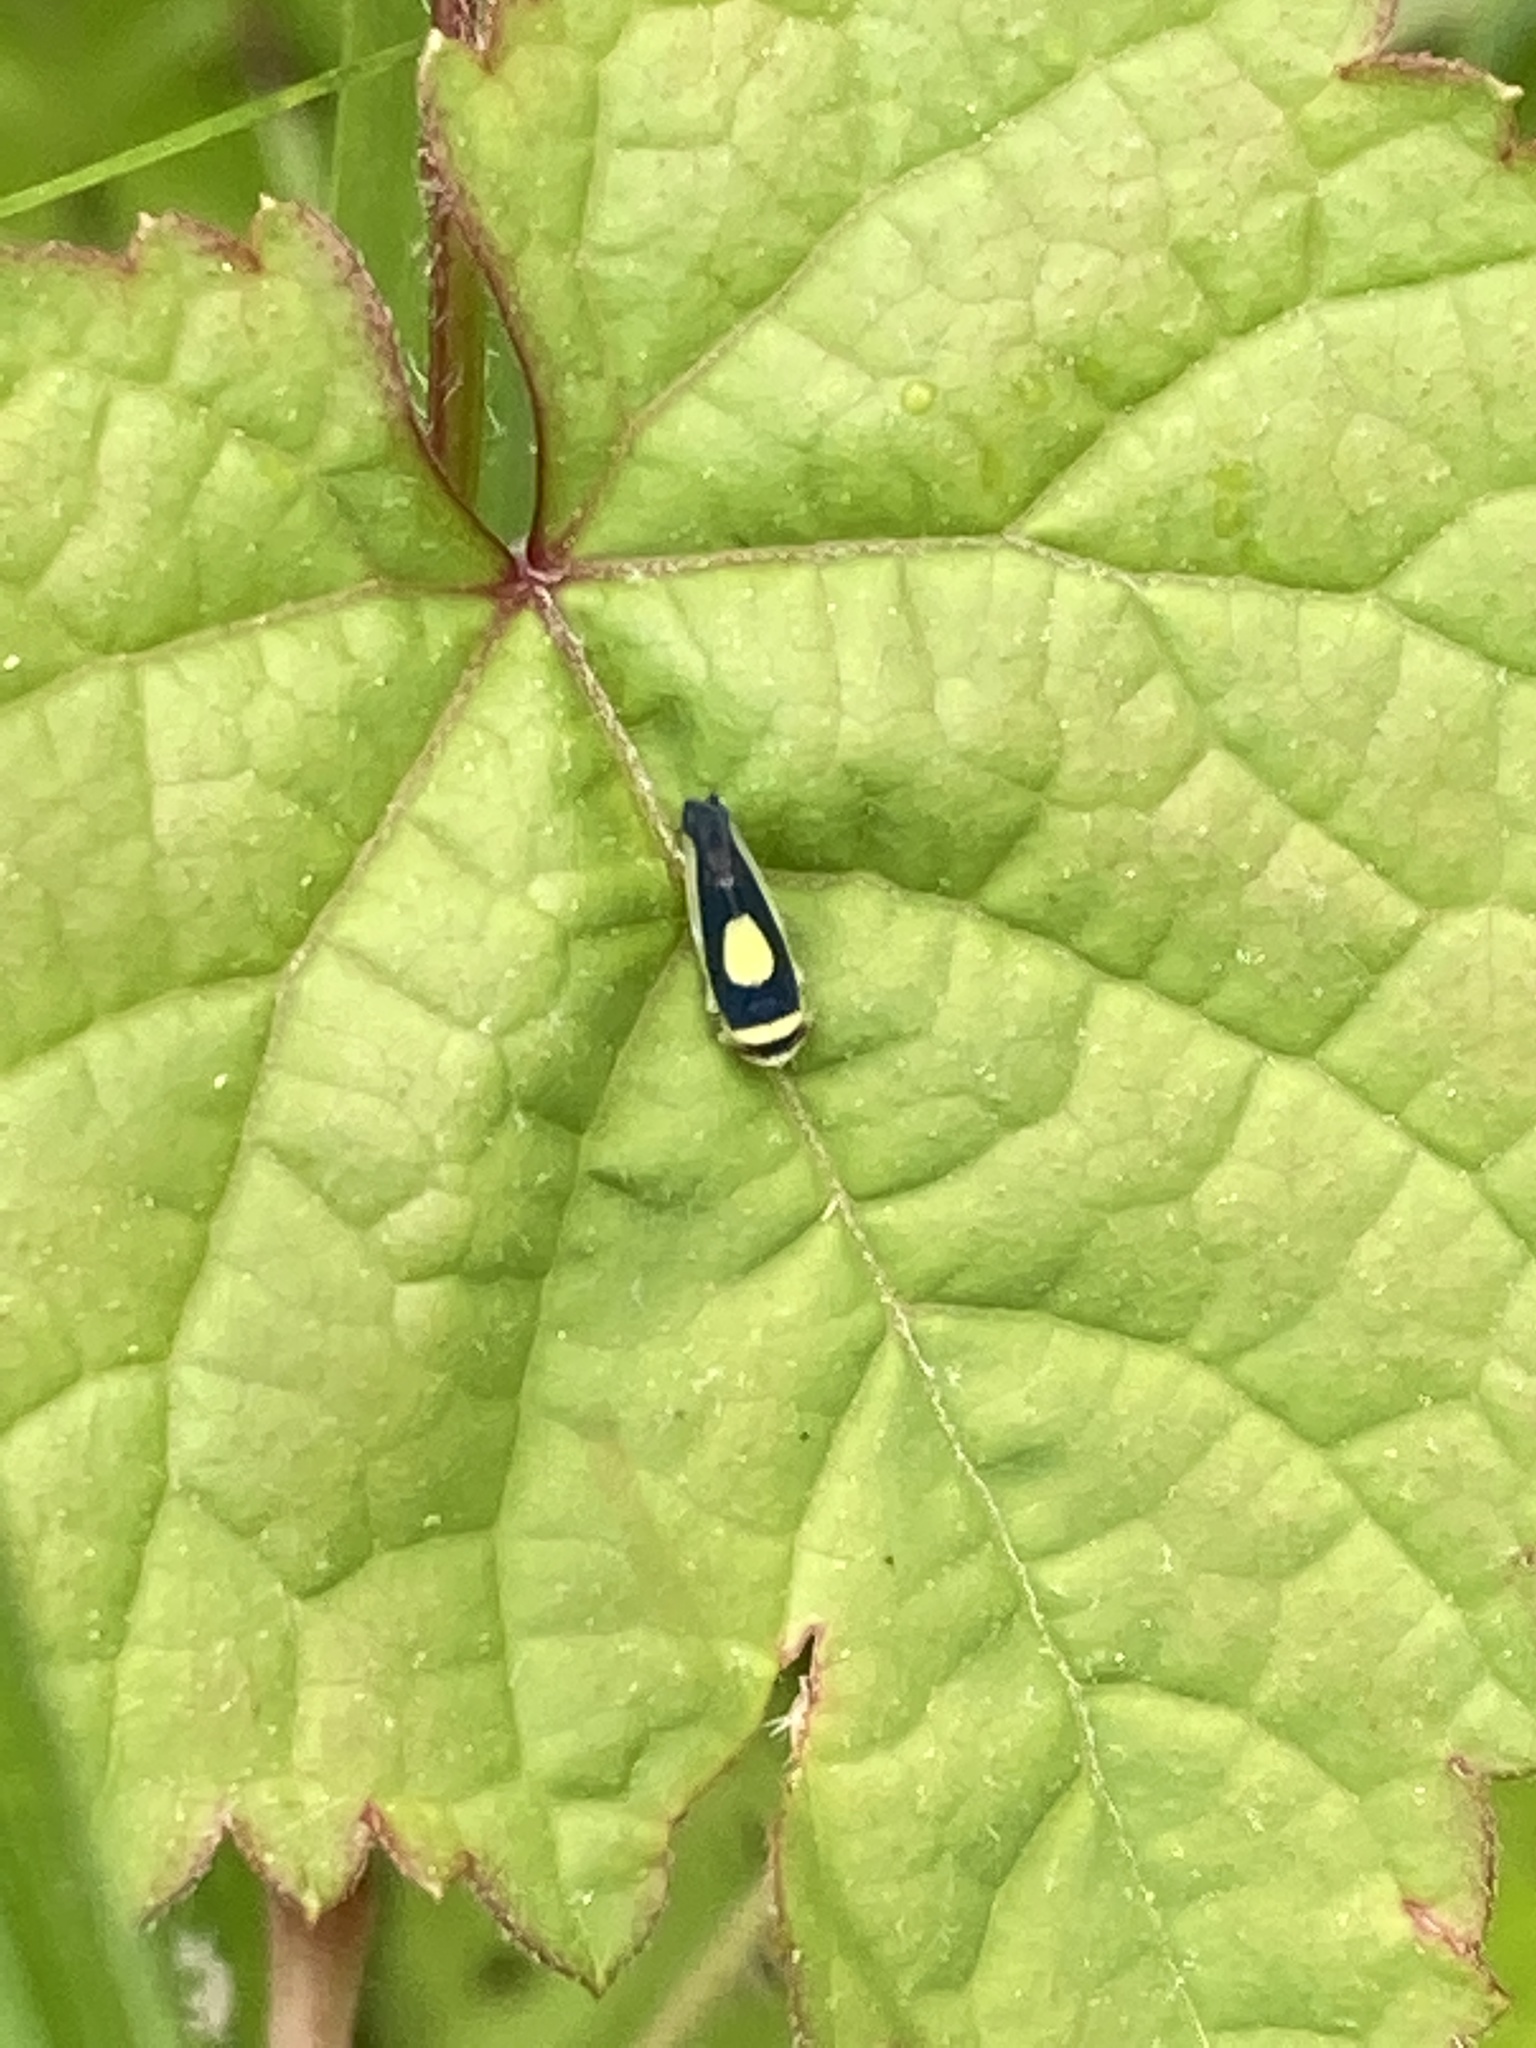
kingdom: Animalia
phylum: Arthropoda
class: Insecta
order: Hemiptera
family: Cicadellidae
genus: Colladonus
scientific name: Colladonus clitellarius
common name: The saddleback leafhopper
